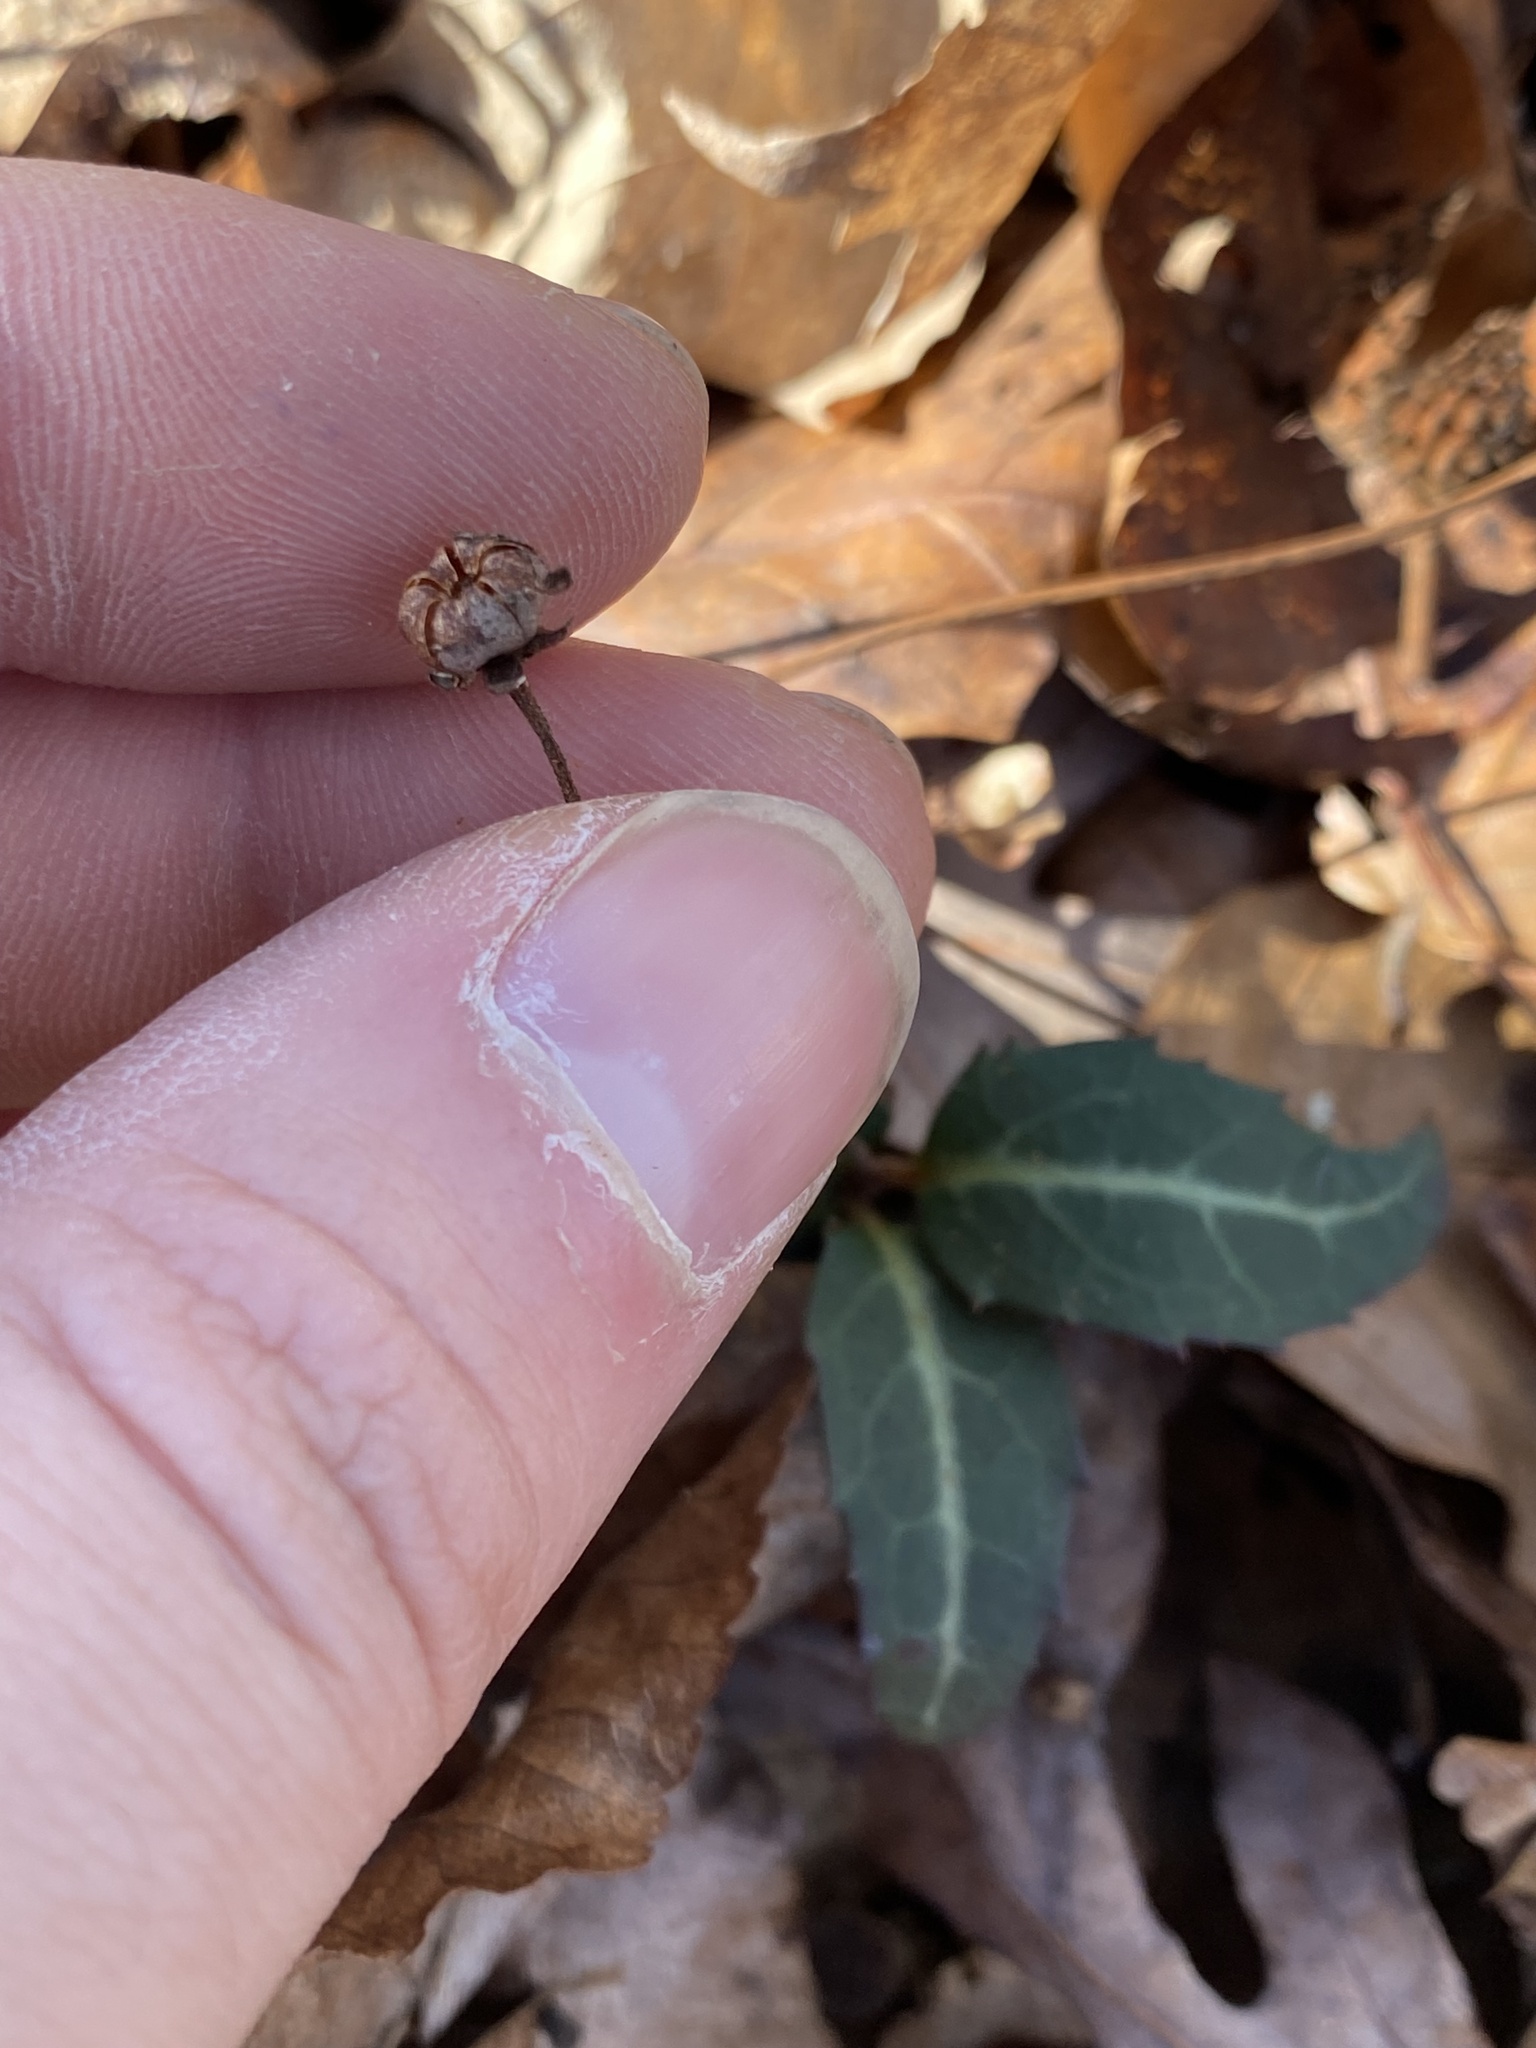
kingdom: Plantae
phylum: Tracheophyta
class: Magnoliopsida
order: Ericales
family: Ericaceae
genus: Chimaphila
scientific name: Chimaphila maculata
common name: Spotted pipsissewa
